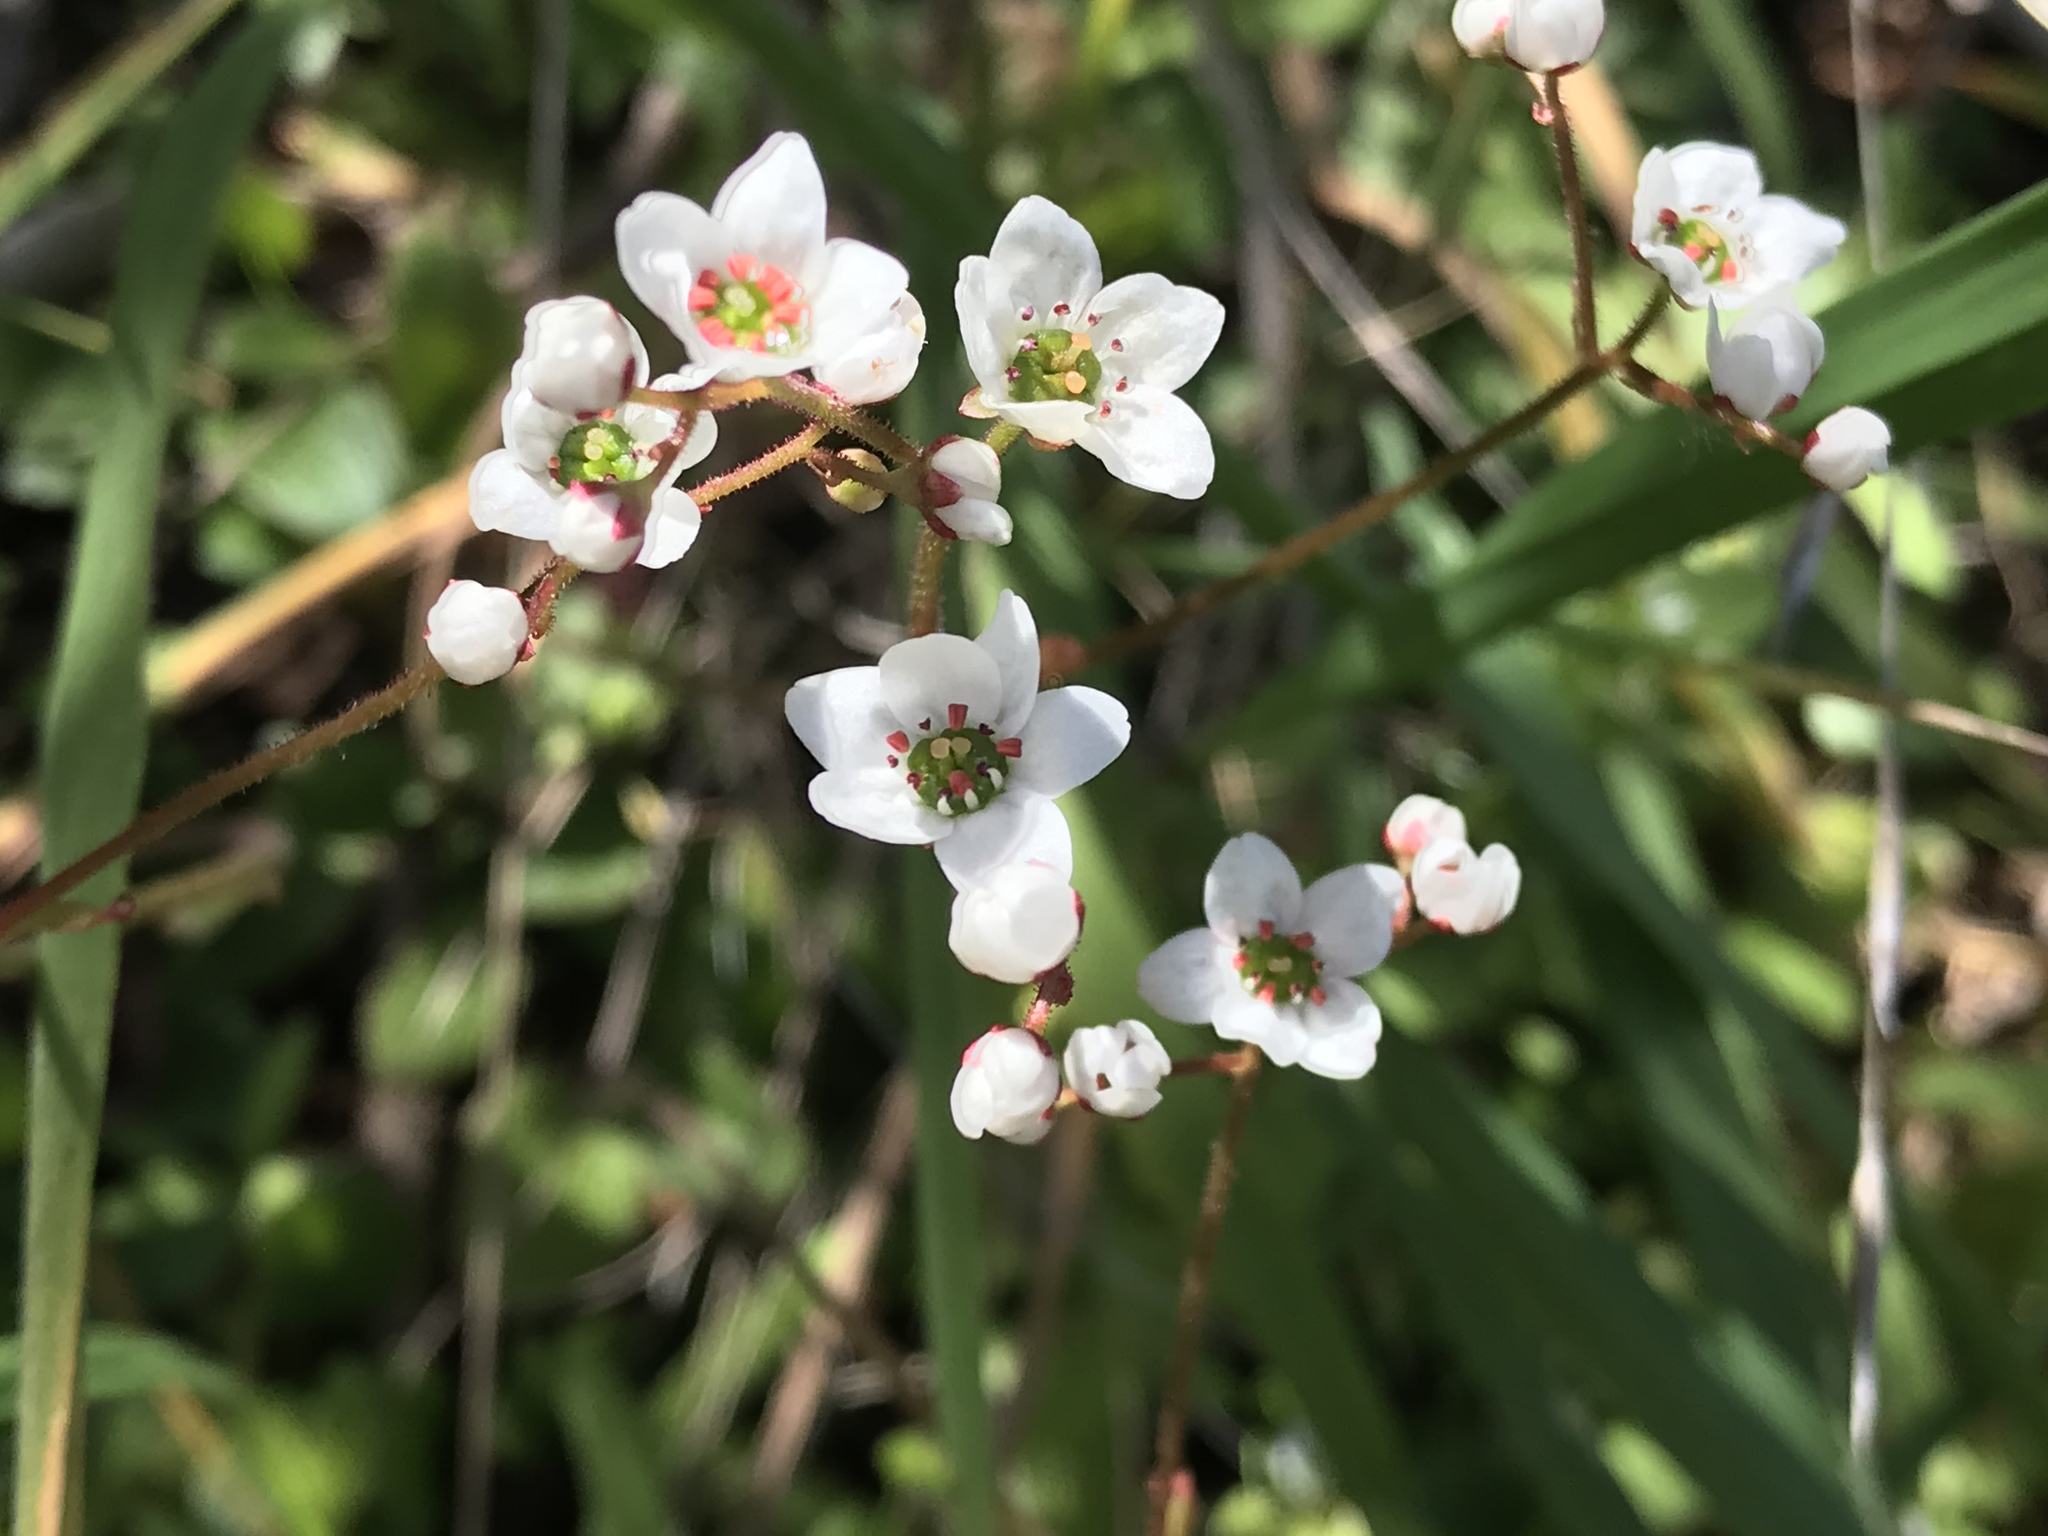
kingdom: Plantae
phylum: Tracheophyta
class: Magnoliopsida
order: Saxifragales
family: Saxifragaceae
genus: Micranthes
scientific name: Micranthes californica
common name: California saxifrage
